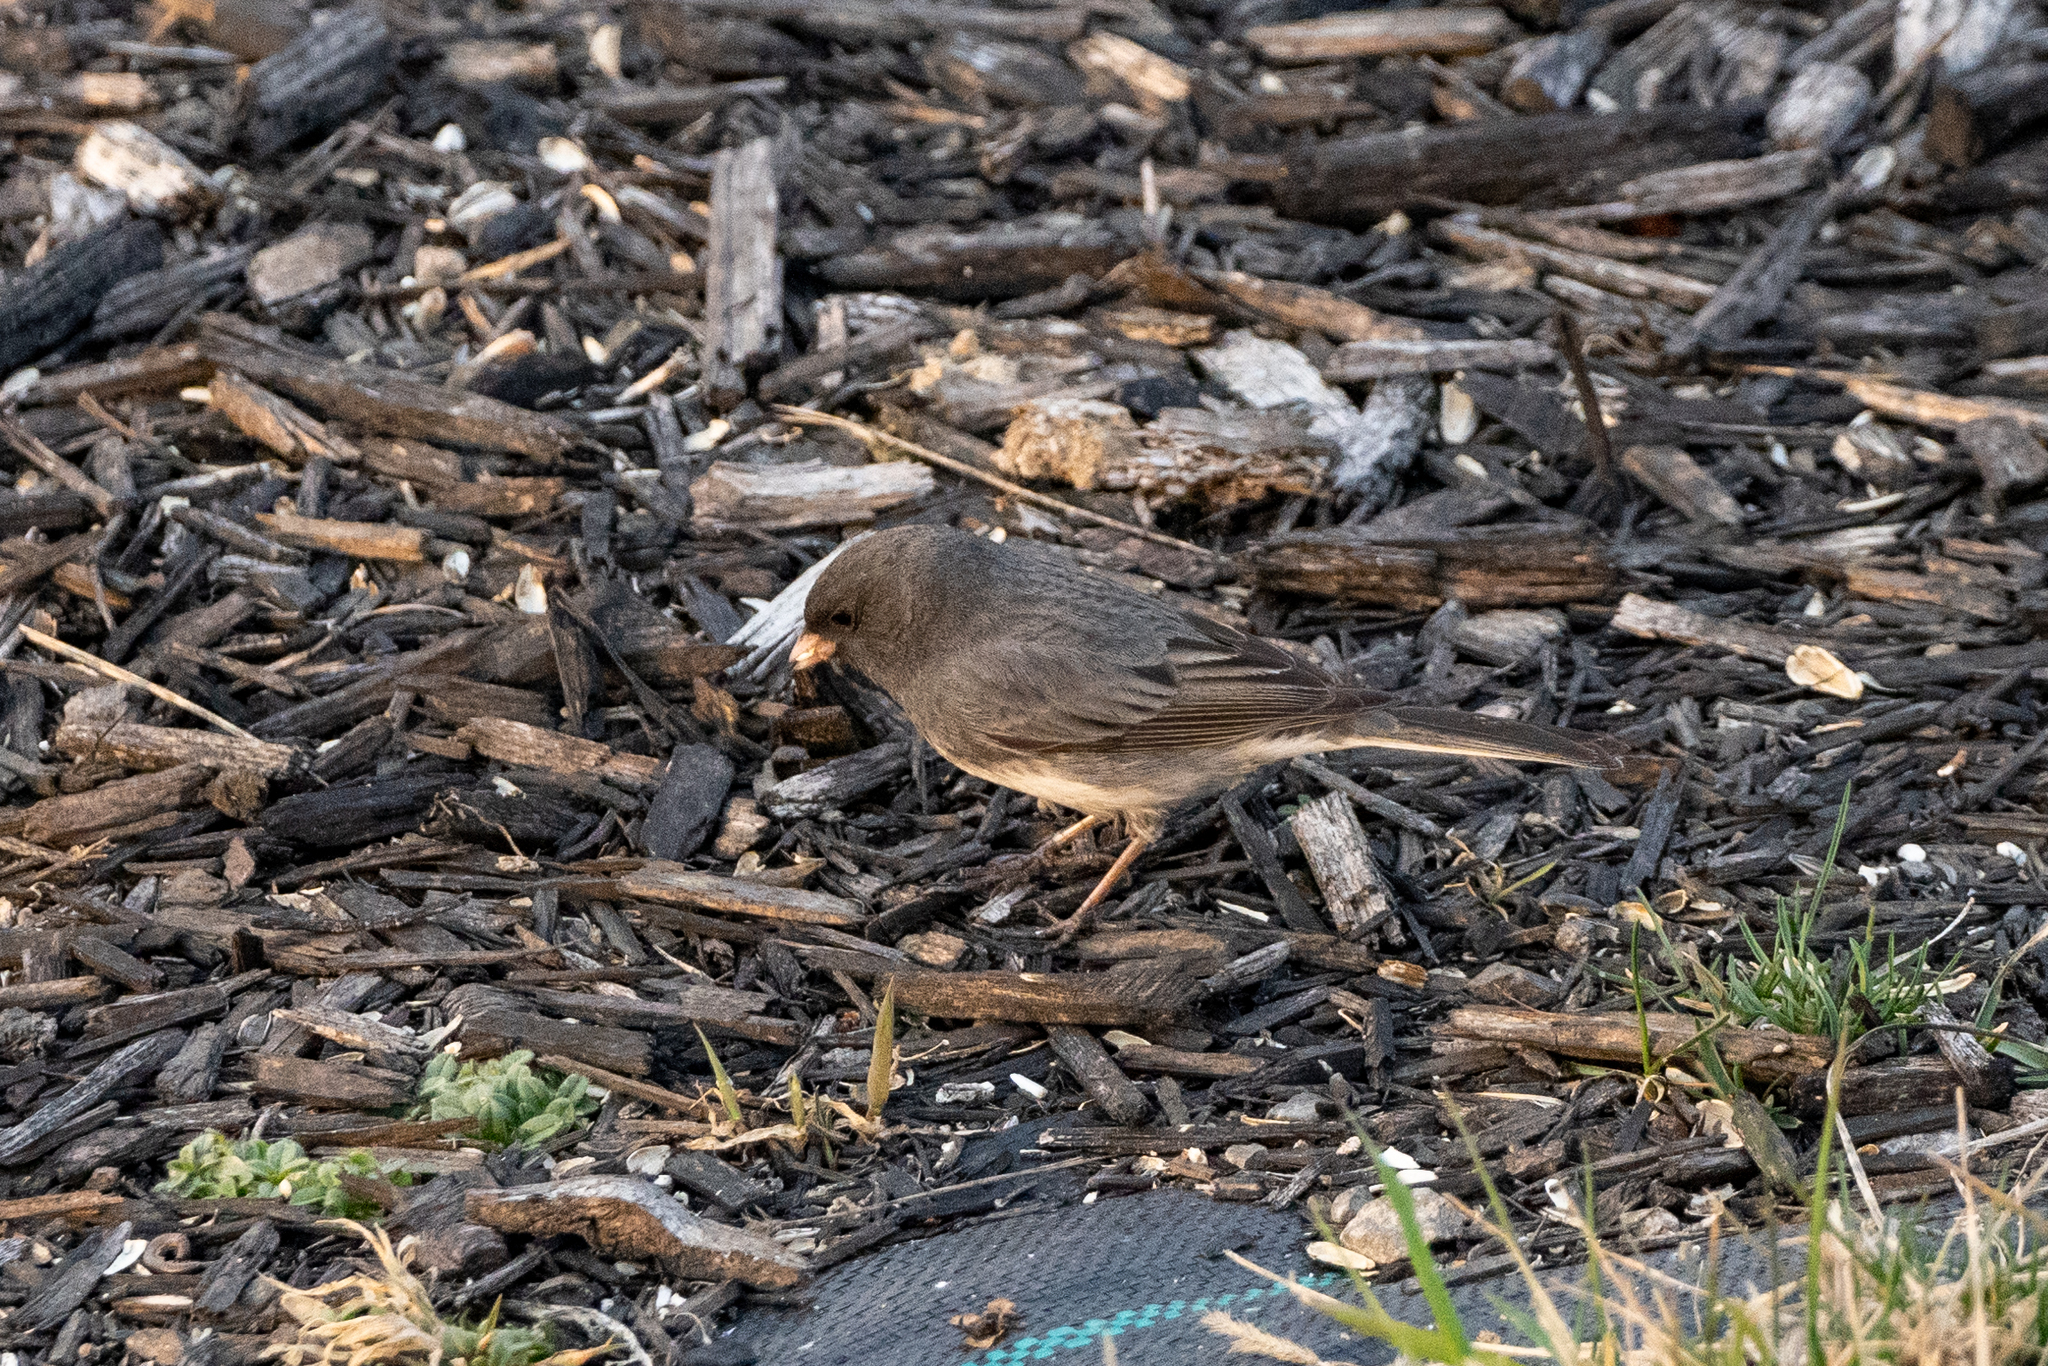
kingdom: Animalia
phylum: Chordata
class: Aves
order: Passeriformes
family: Passerellidae
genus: Junco
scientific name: Junco hyemalis
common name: Dark-eyed junco
